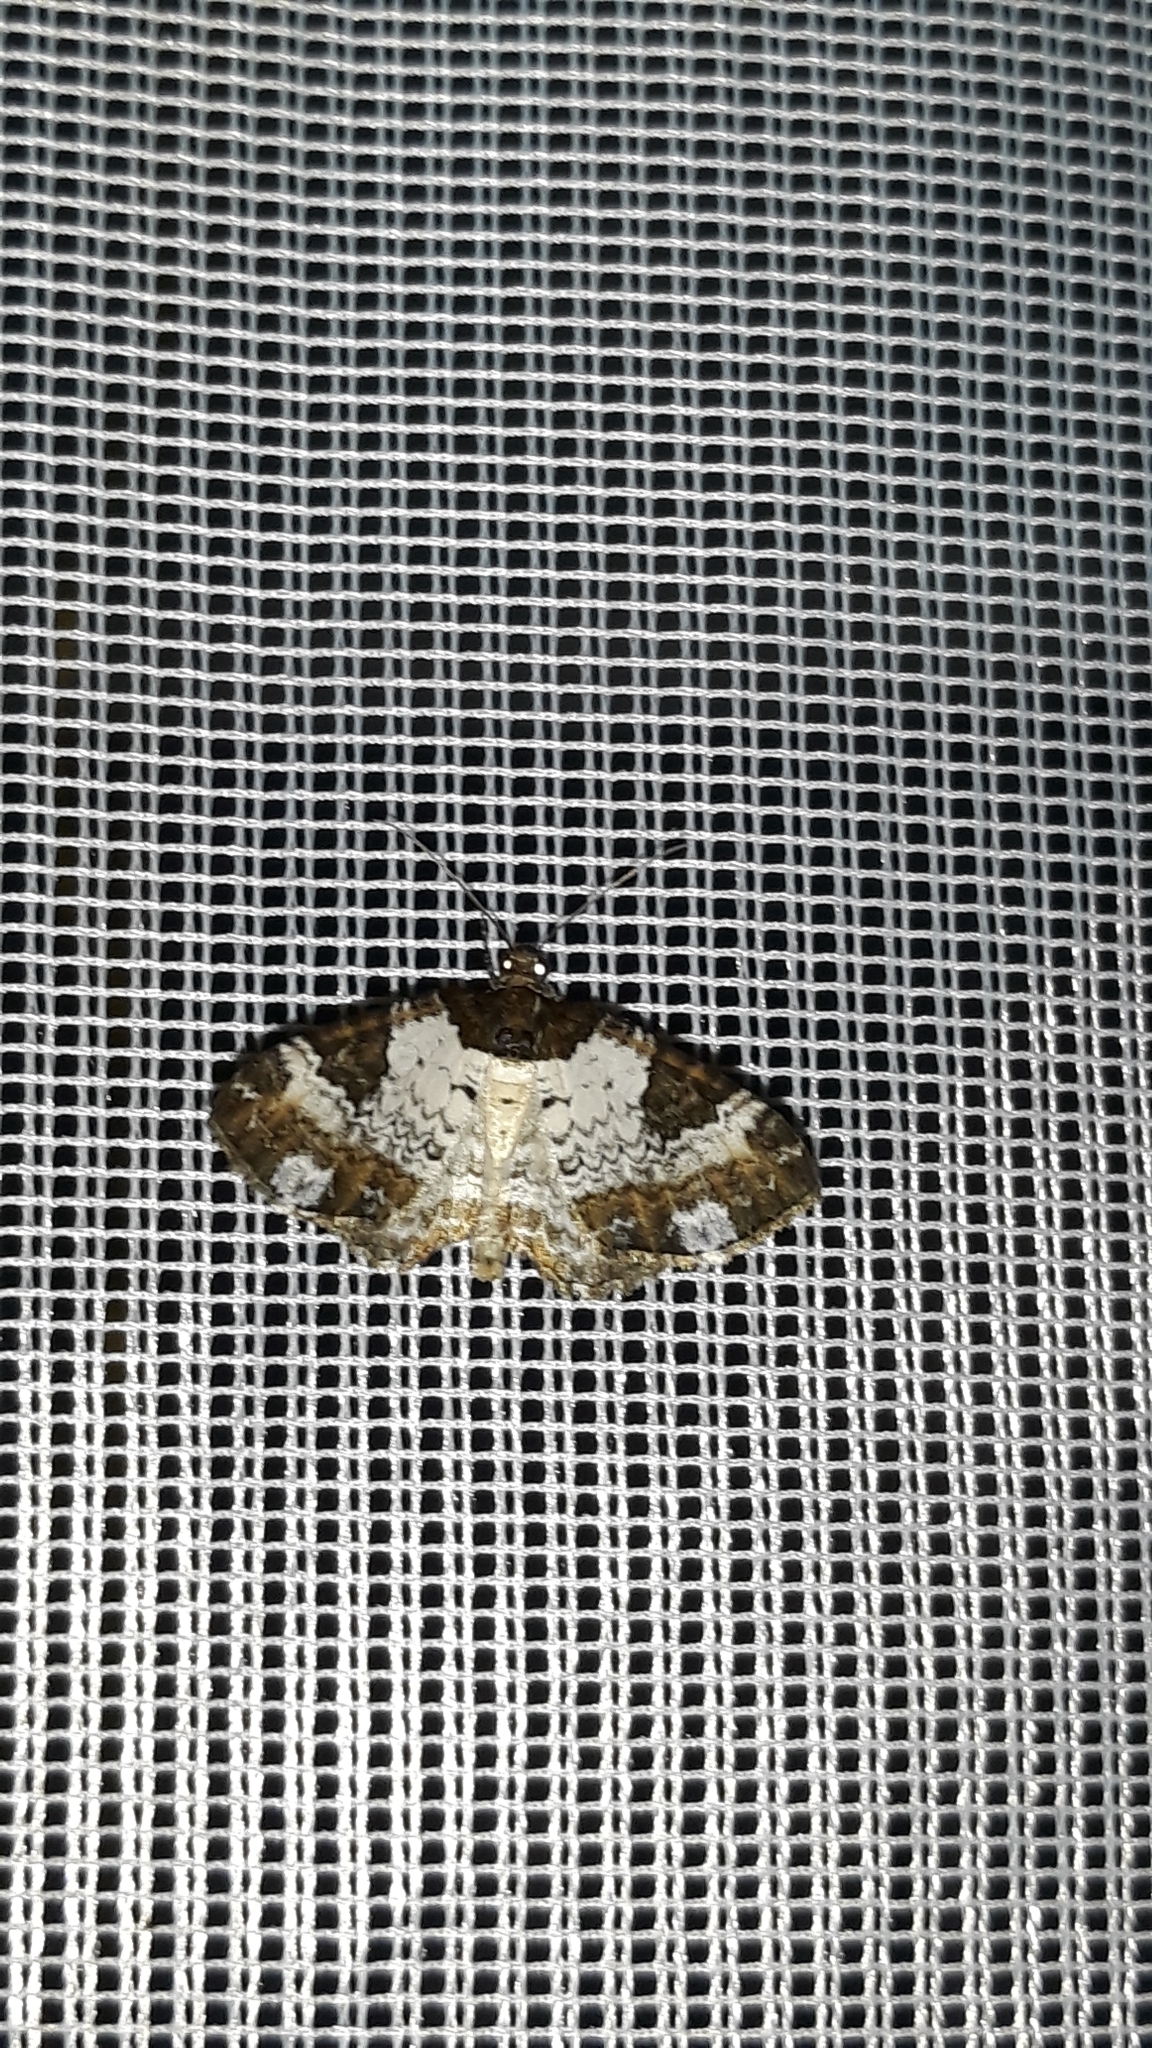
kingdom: Animalia
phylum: Arthropoda
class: Insecta
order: Lepidoptera
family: Geometridae
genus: Melanthia
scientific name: Melanthia procellata
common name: Pretty chalk carpet
